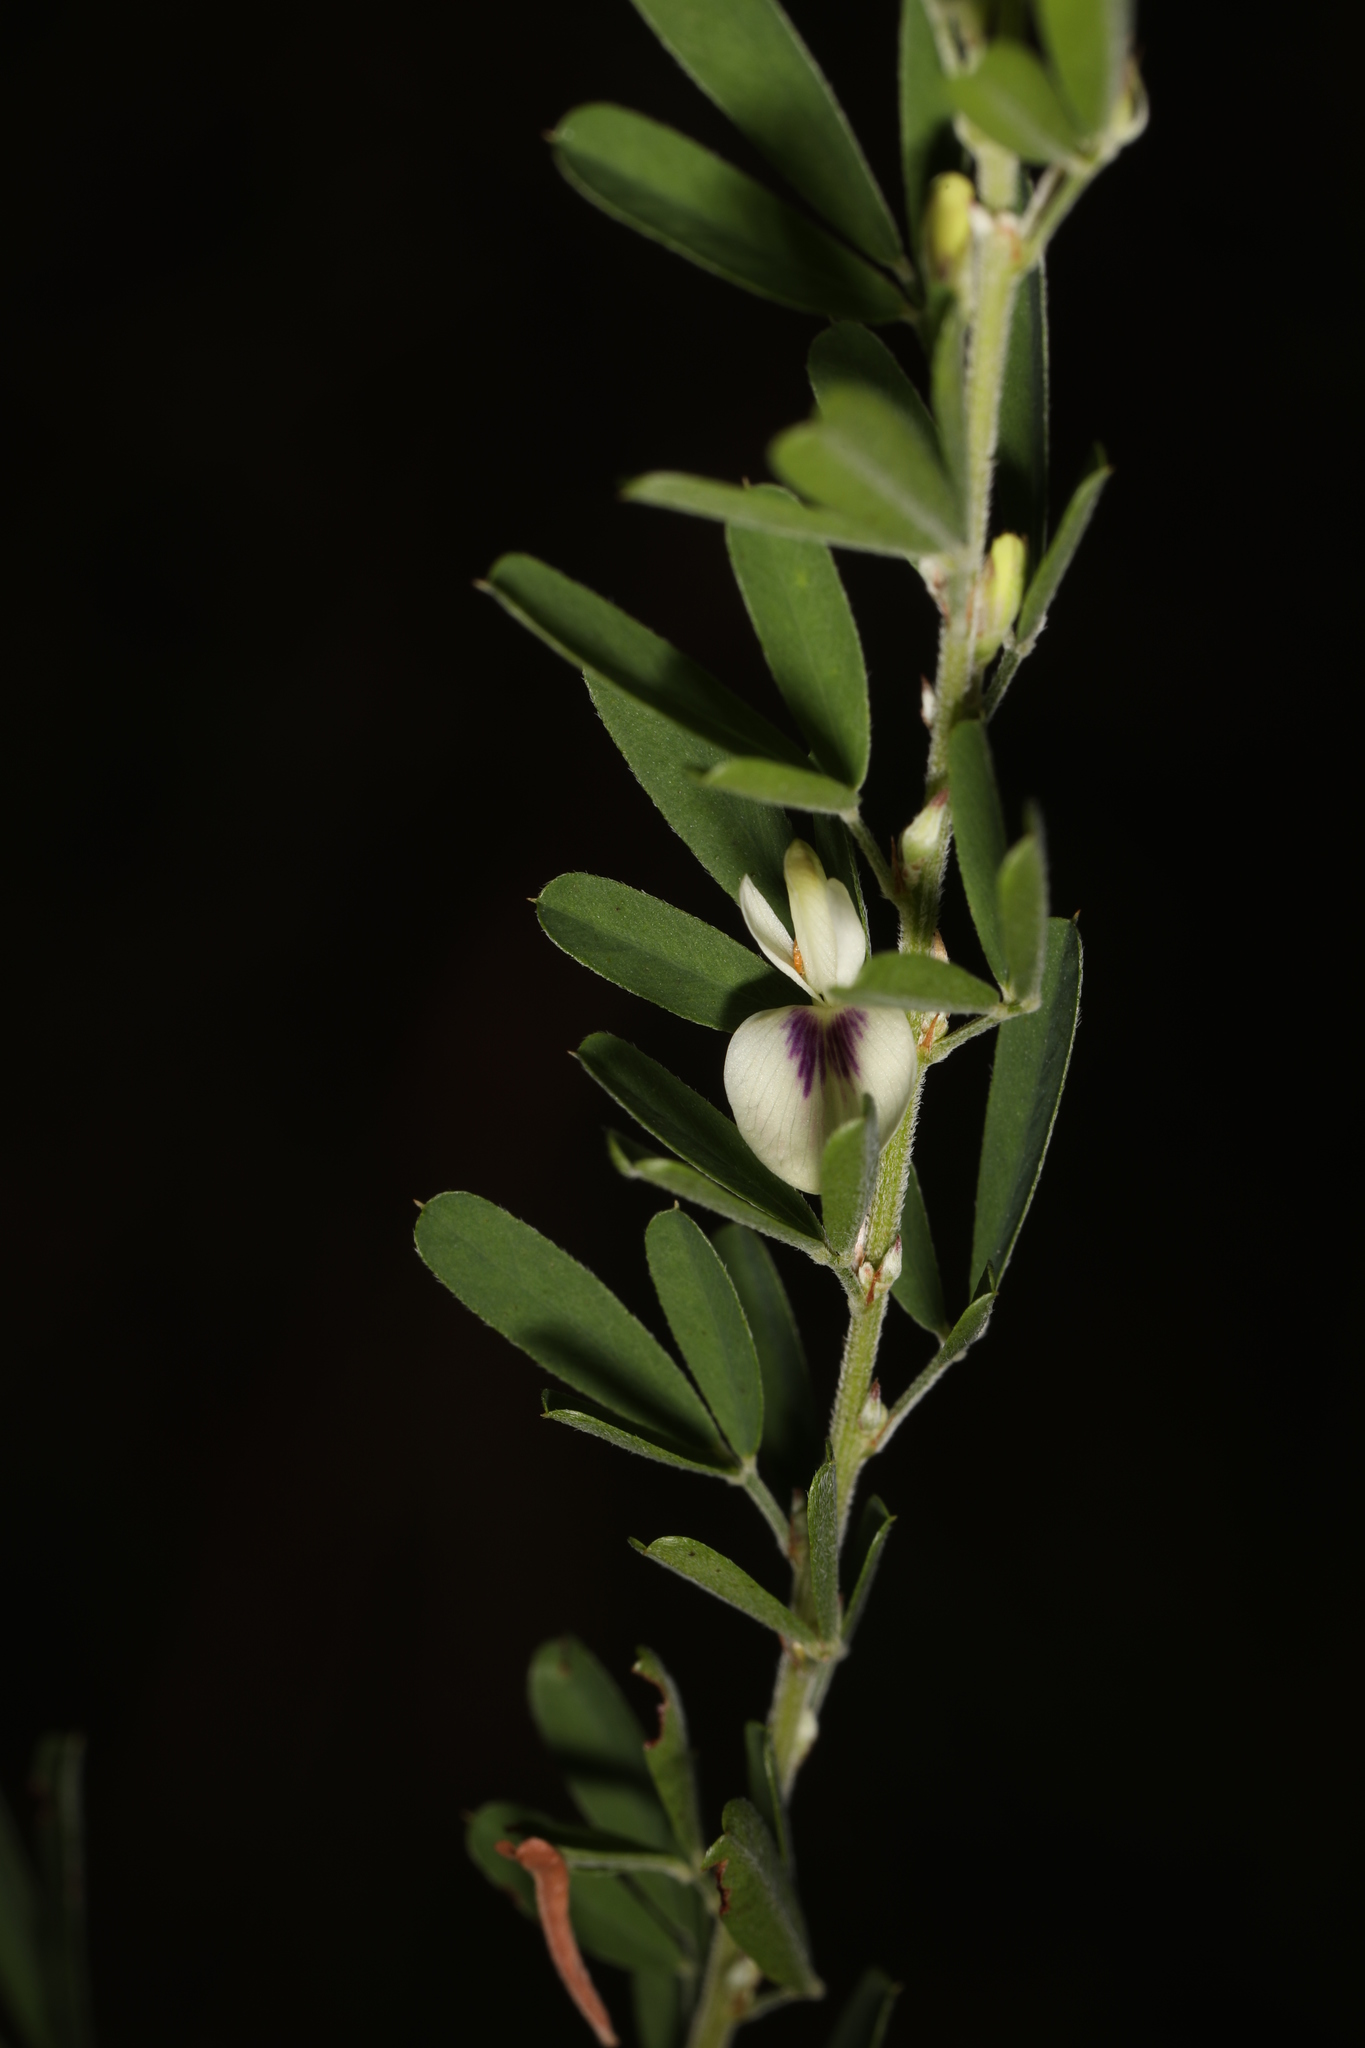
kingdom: Plantae
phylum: Tracheophyta
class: Magnoliopsida
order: Fabales
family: Fabaceae
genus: Lespedeza
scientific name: Lespedeza cuneata
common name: Chinese bush-clover
